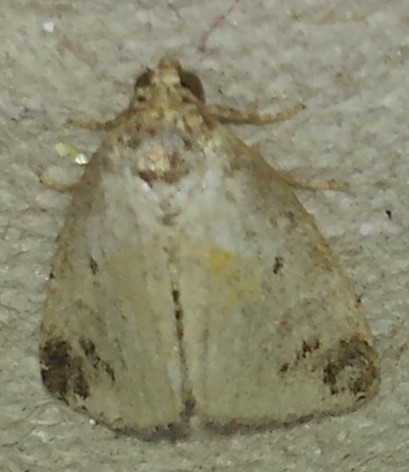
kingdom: Animalia
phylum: Arthropoda
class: Insecta
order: Lepidoptera
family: Noctuidae
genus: Maliattha
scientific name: Maliattha synochitis
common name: Black-dotted glyph
